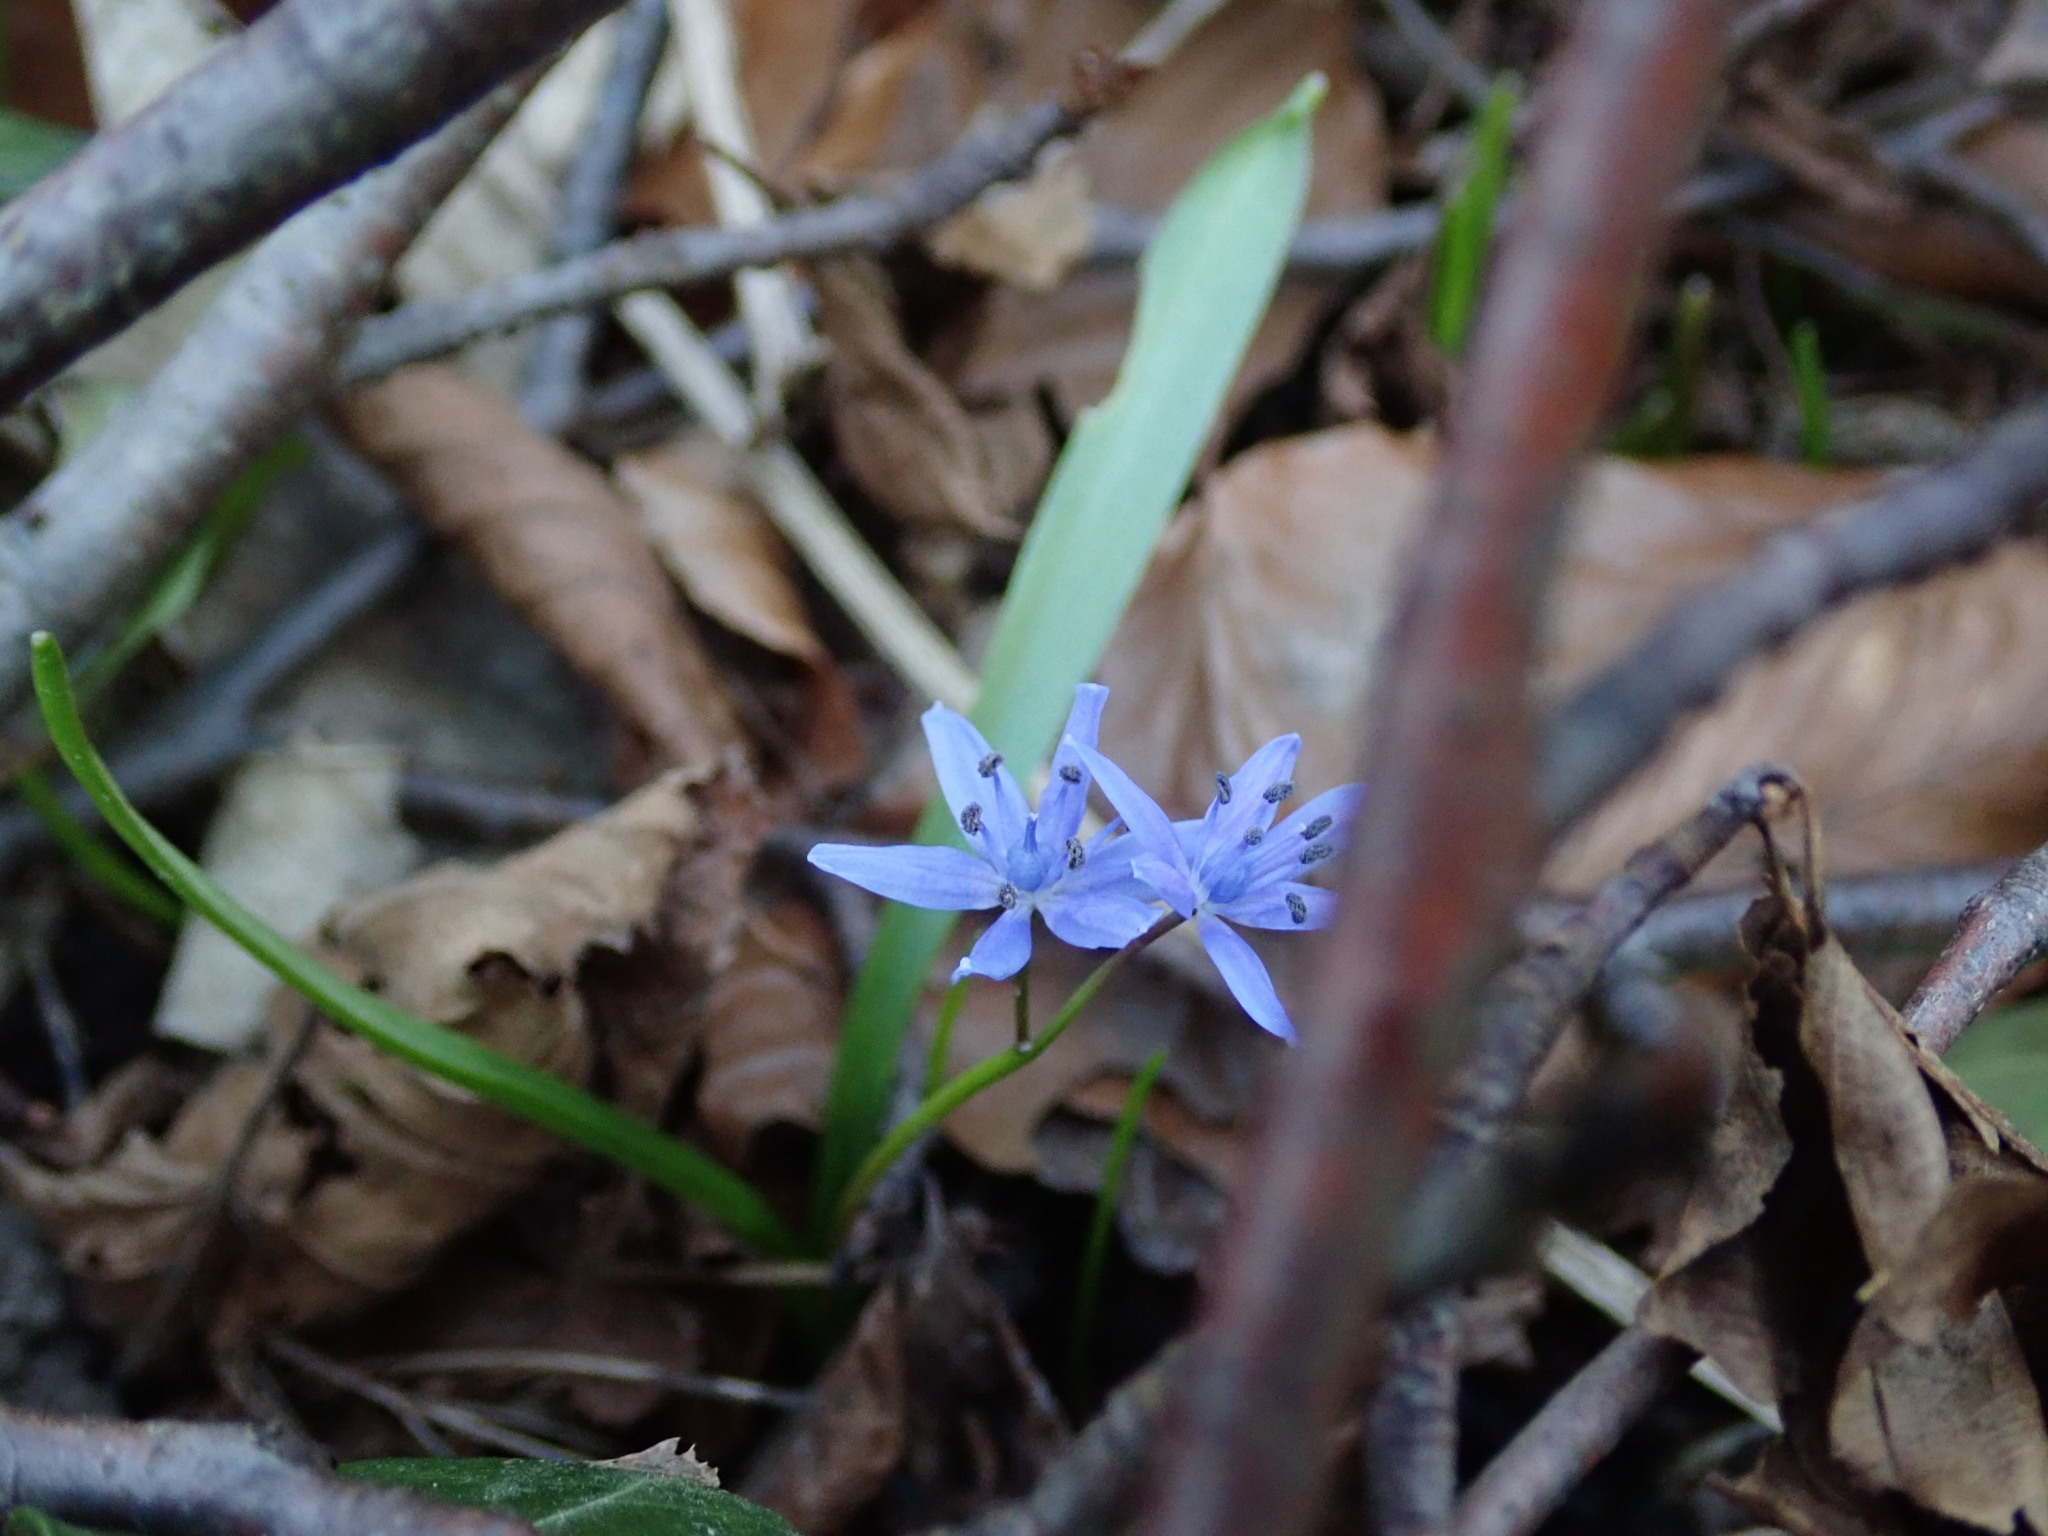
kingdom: Plantae
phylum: Tracheophyta
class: Liliopsida
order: Asparagales
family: Asparagaceae
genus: Scilla
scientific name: Scilla bifolia
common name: Alpine squill
